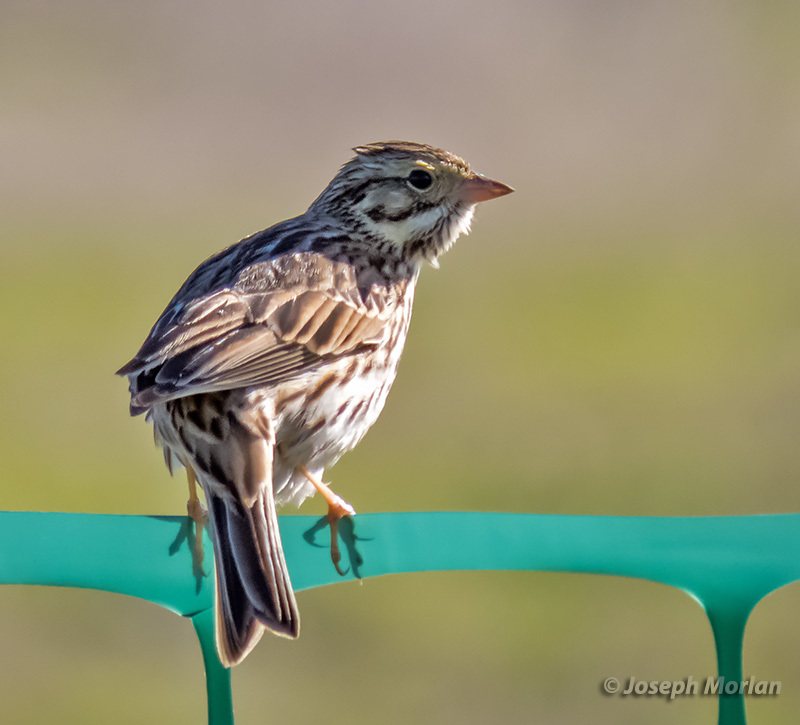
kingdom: Animalia
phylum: Chordata
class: Aves
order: Passeriformes
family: Passerellidae
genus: Passerculus
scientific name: Passerculus sandwichensis
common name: Savannah sparrow
